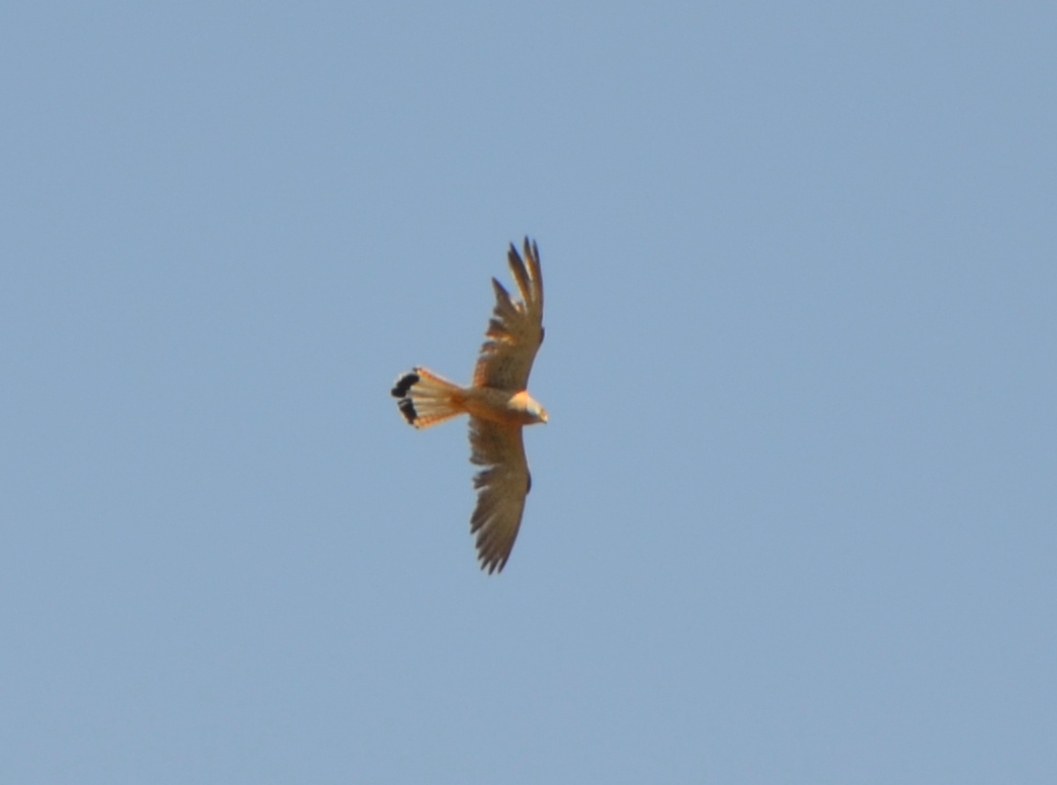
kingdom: Animalia
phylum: Chordata
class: Aves
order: Falconiformes
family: Falconidae
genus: Falco
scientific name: Falco naumanni
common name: Lesser kestrel
